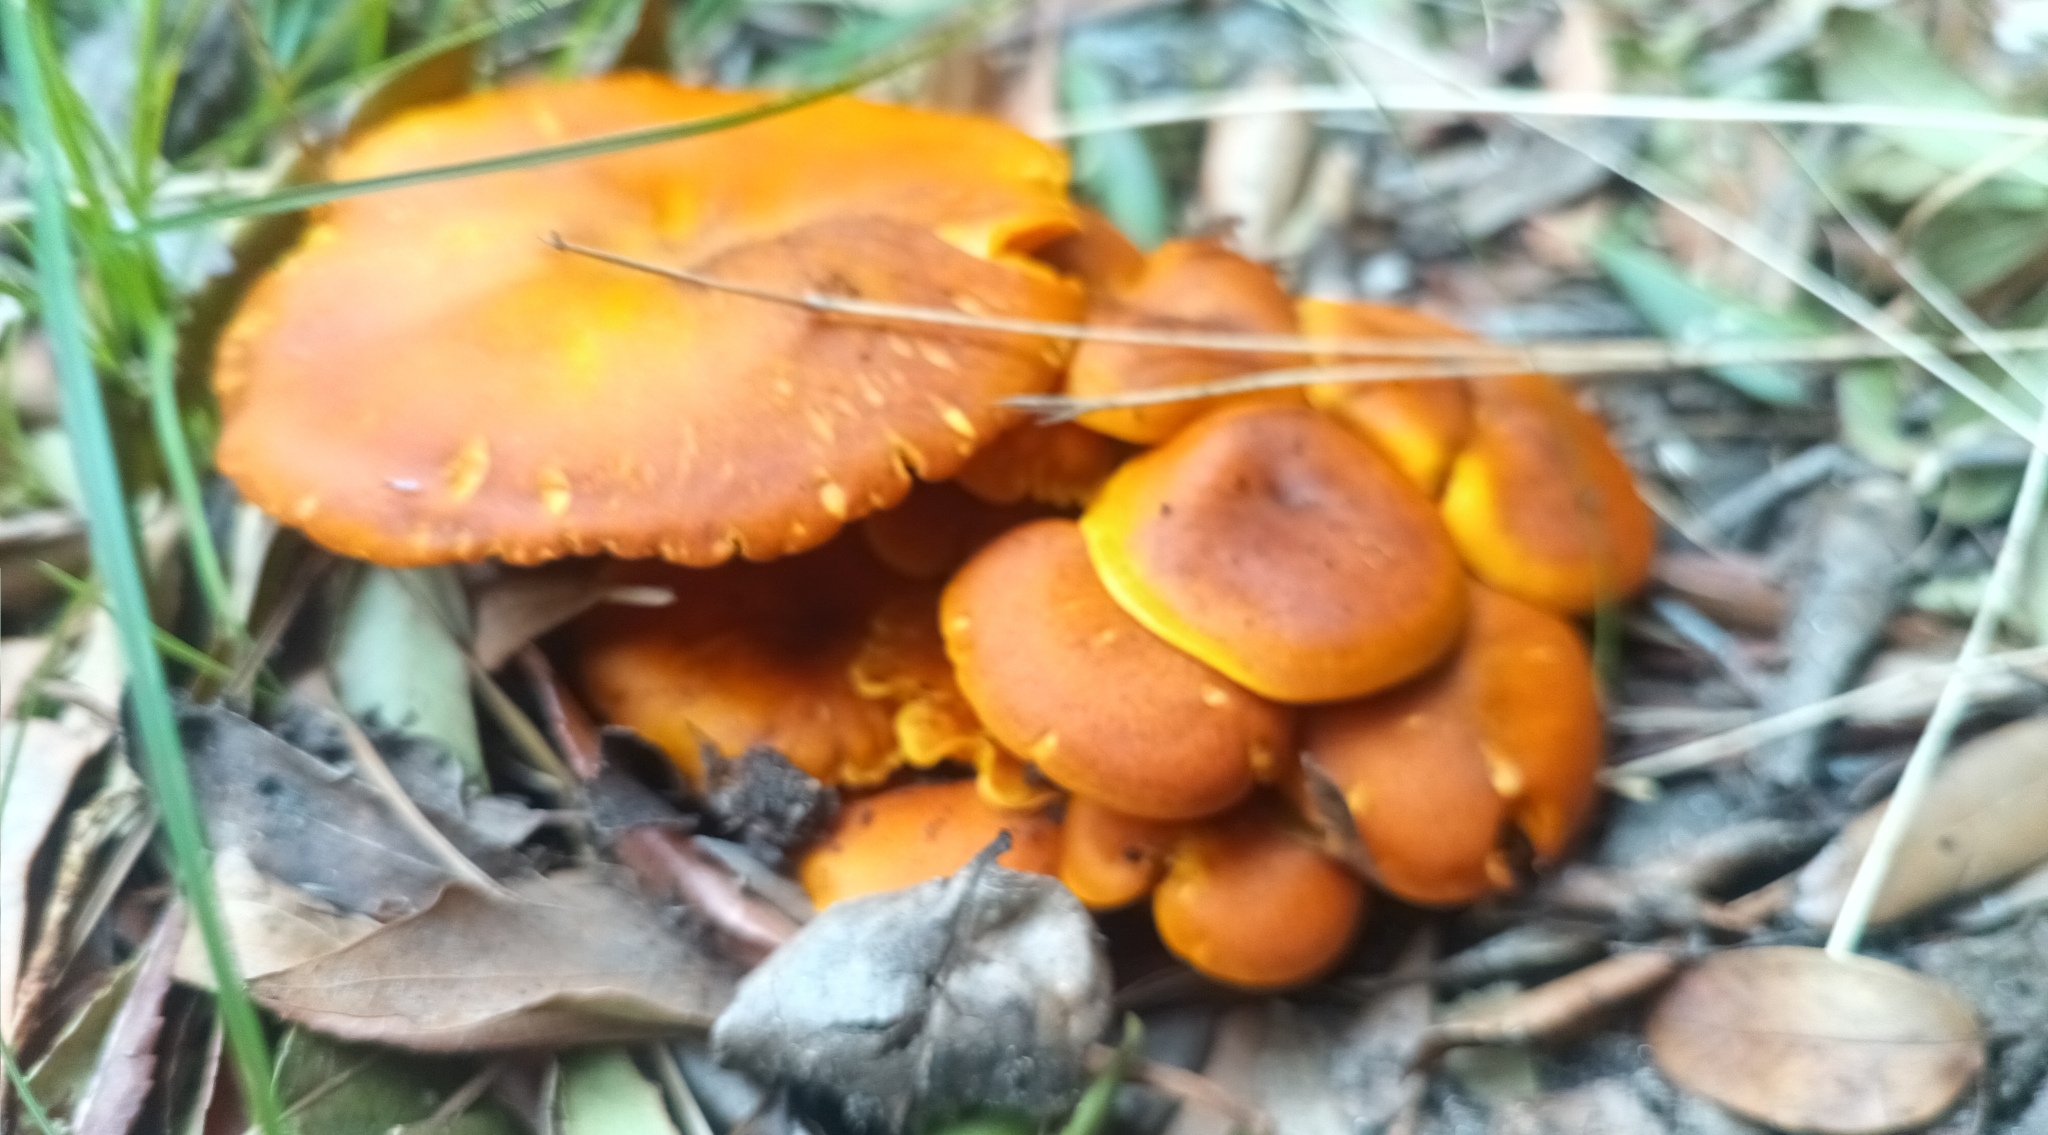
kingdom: Fungi
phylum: Basidiomycota
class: Agaricomycetes
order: Agaricales
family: Omphalotaceae
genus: Omphalotus
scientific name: Omphalotus olearius
